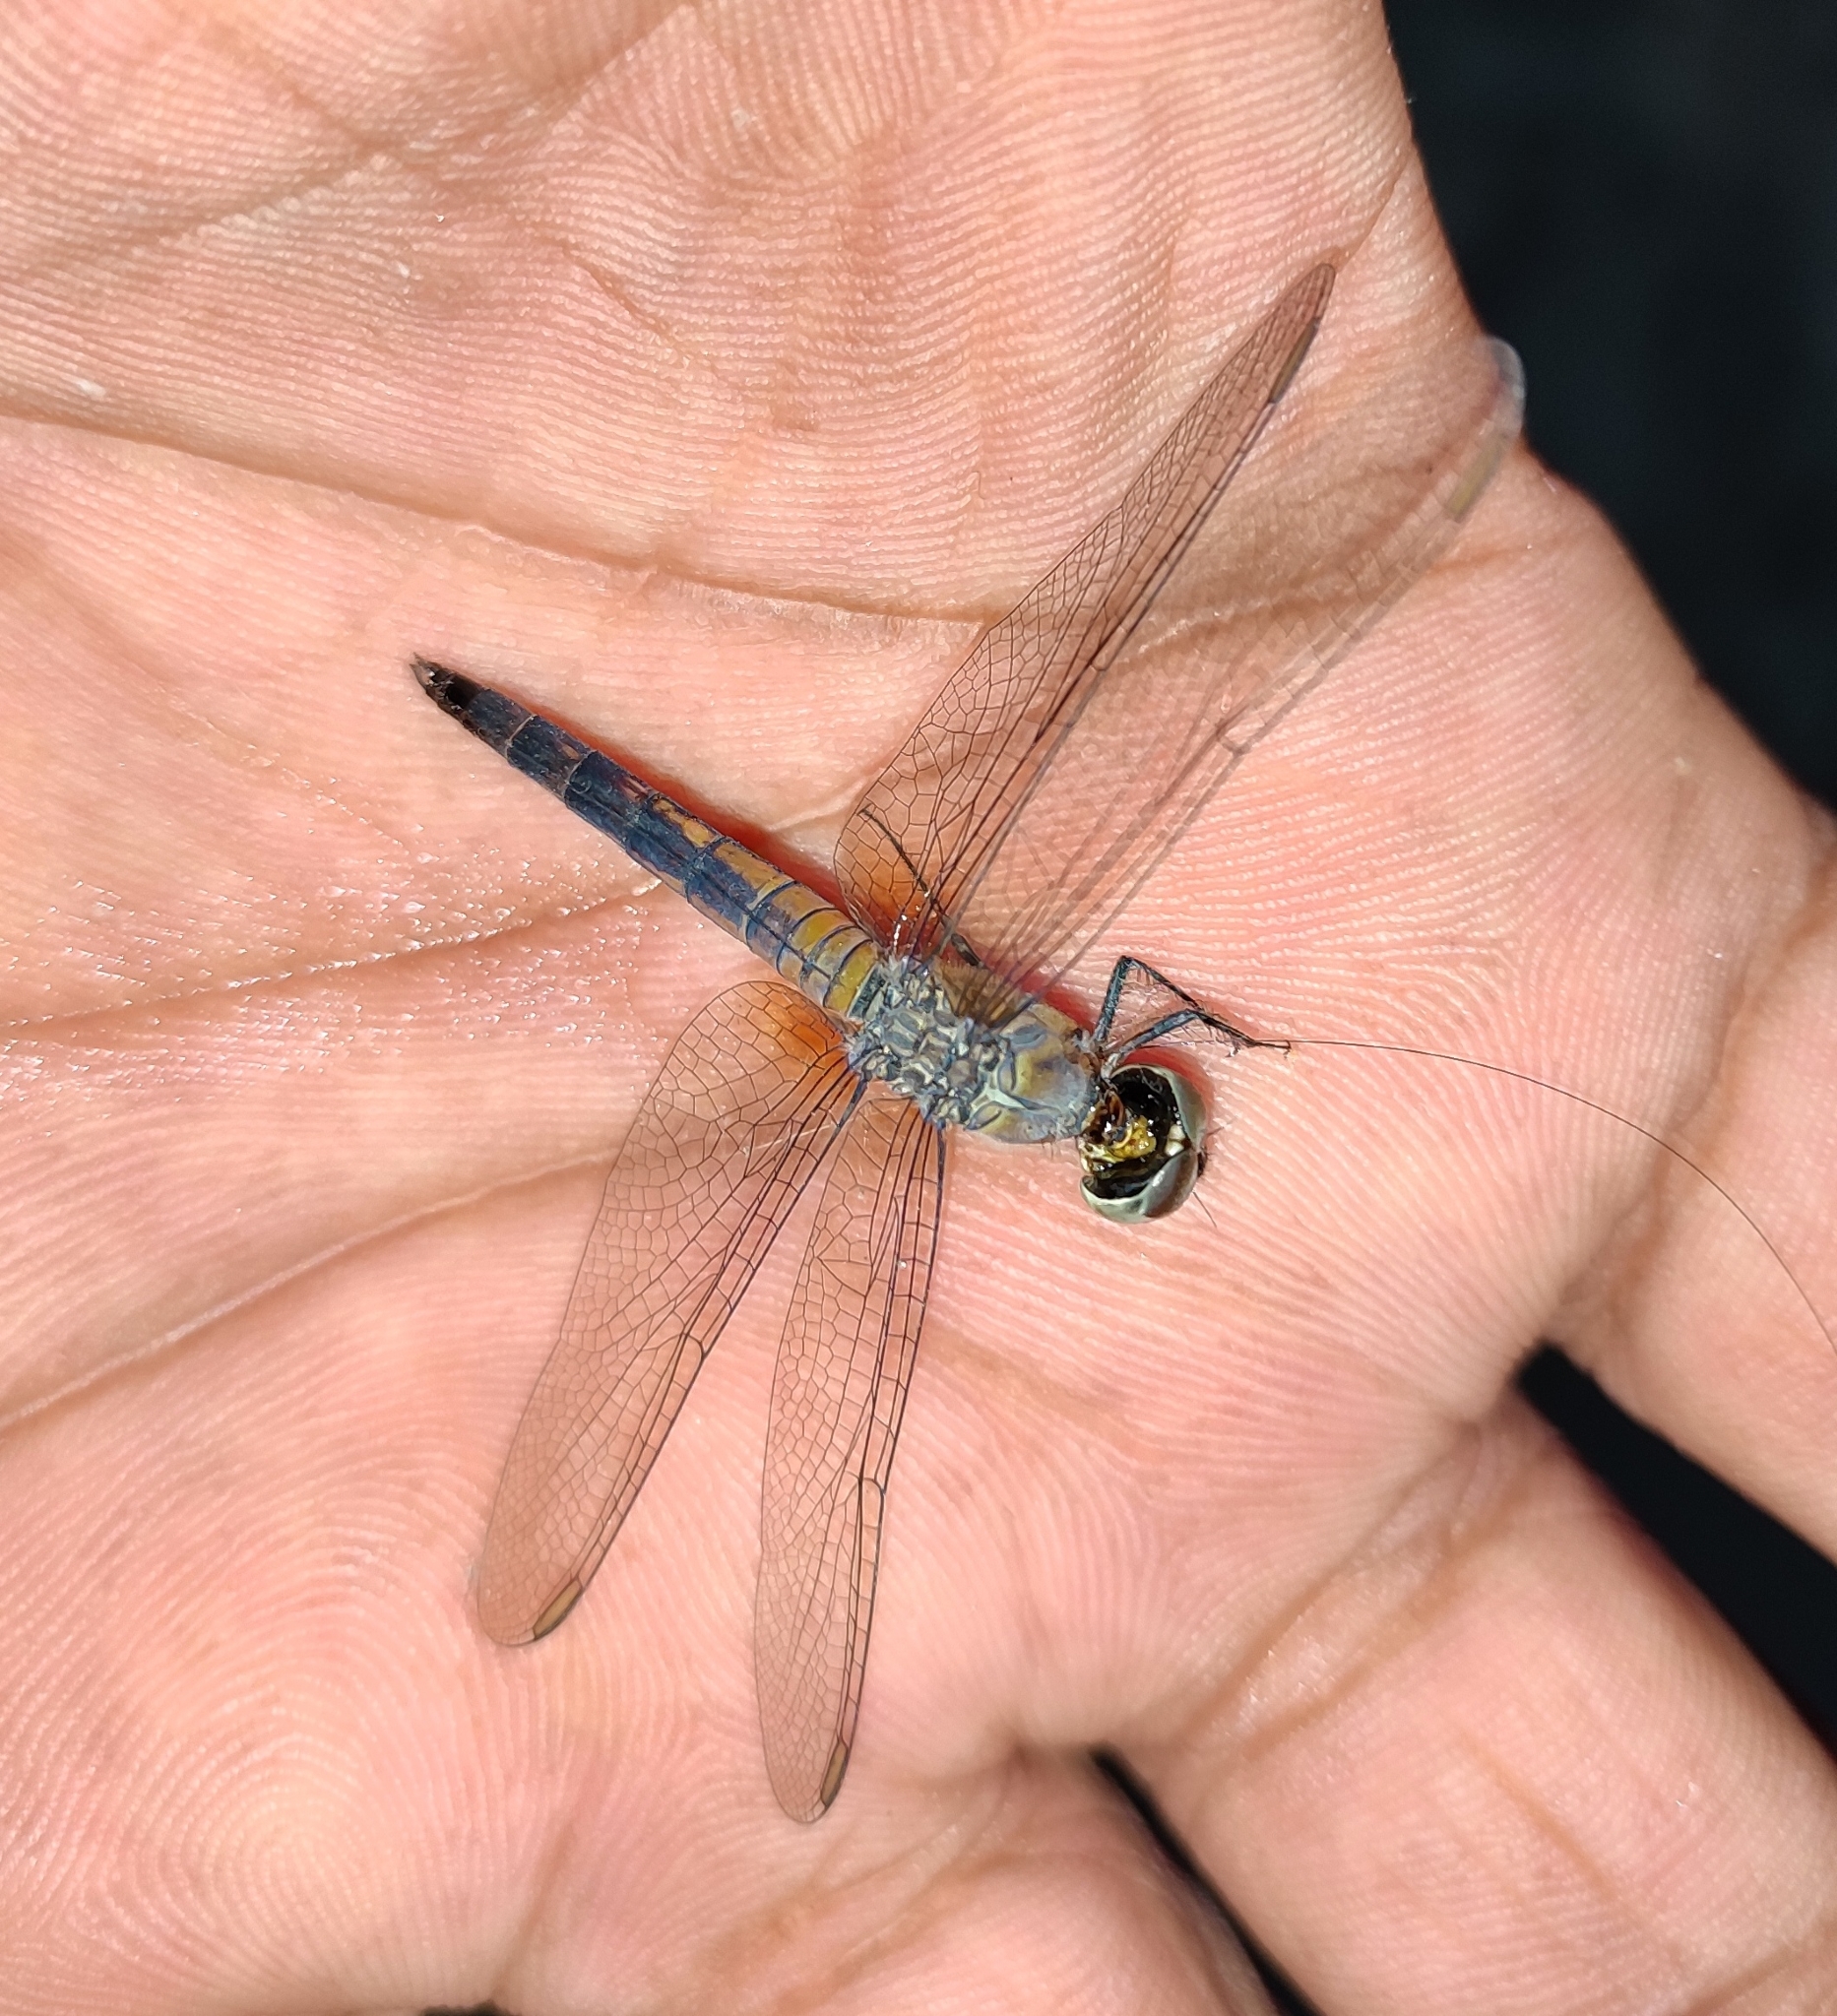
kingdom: Animalia
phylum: Arthropoda
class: Insecta
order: Odonata
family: Libellulidae
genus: Brachydiplax
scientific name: Brachydiplax chalybea
